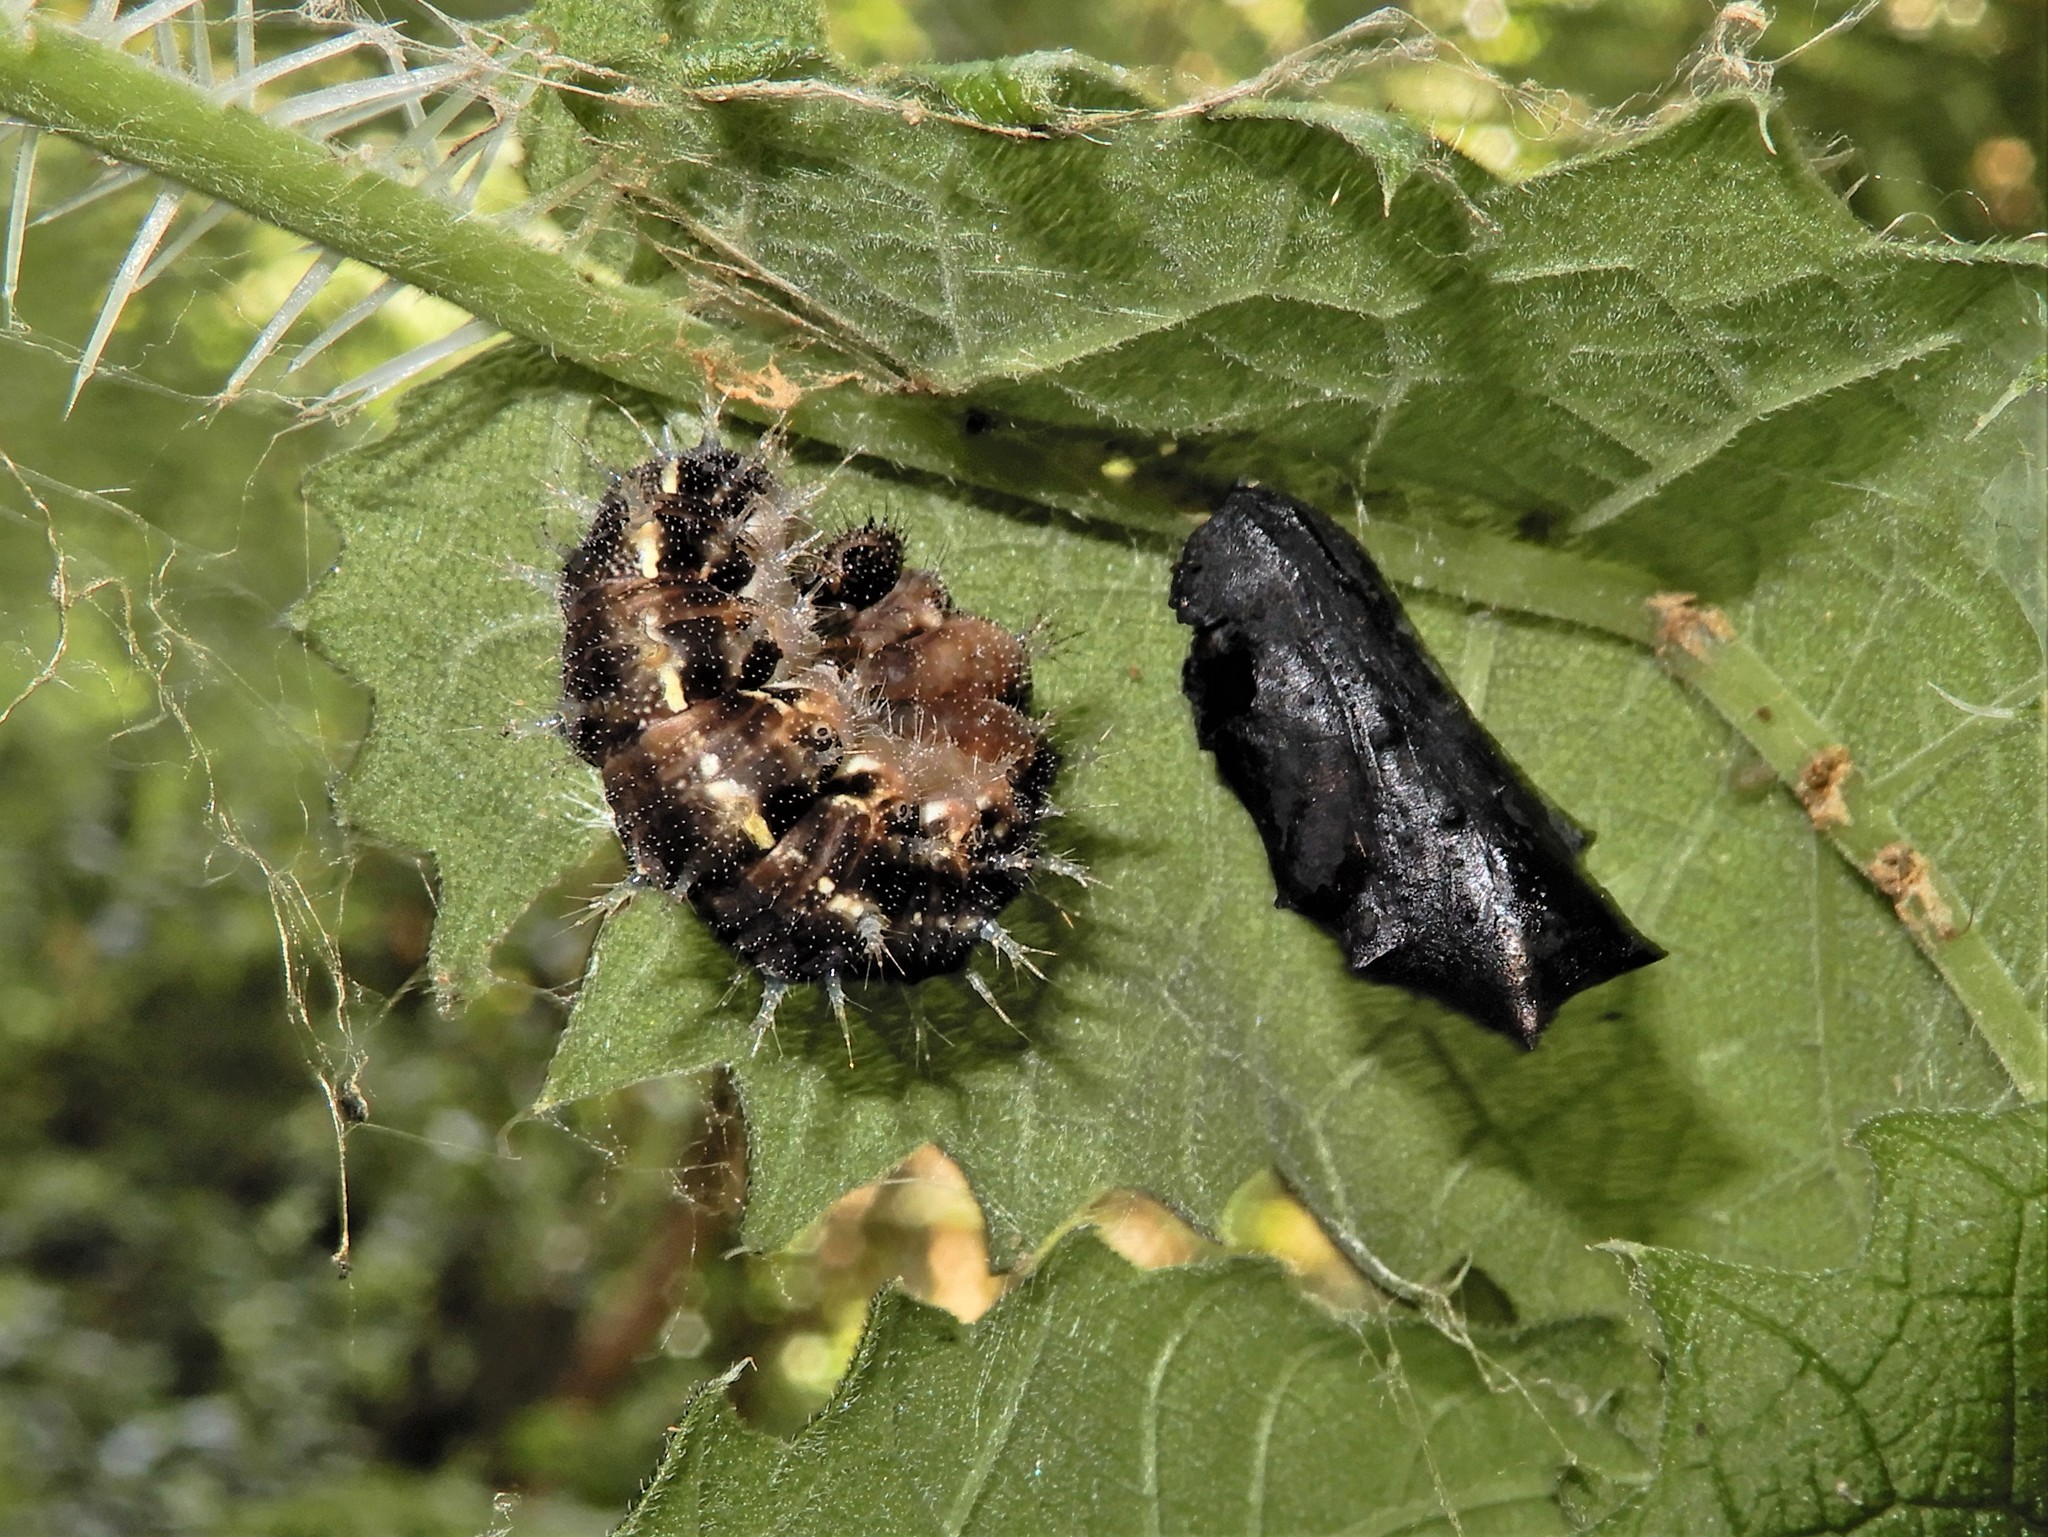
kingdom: Animalia
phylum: Arthropoda
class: Insecta
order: Lepidoptera
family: Nymphalidae
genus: Vanessa
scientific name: Vanessa gonerilla
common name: New zealand red admiral
